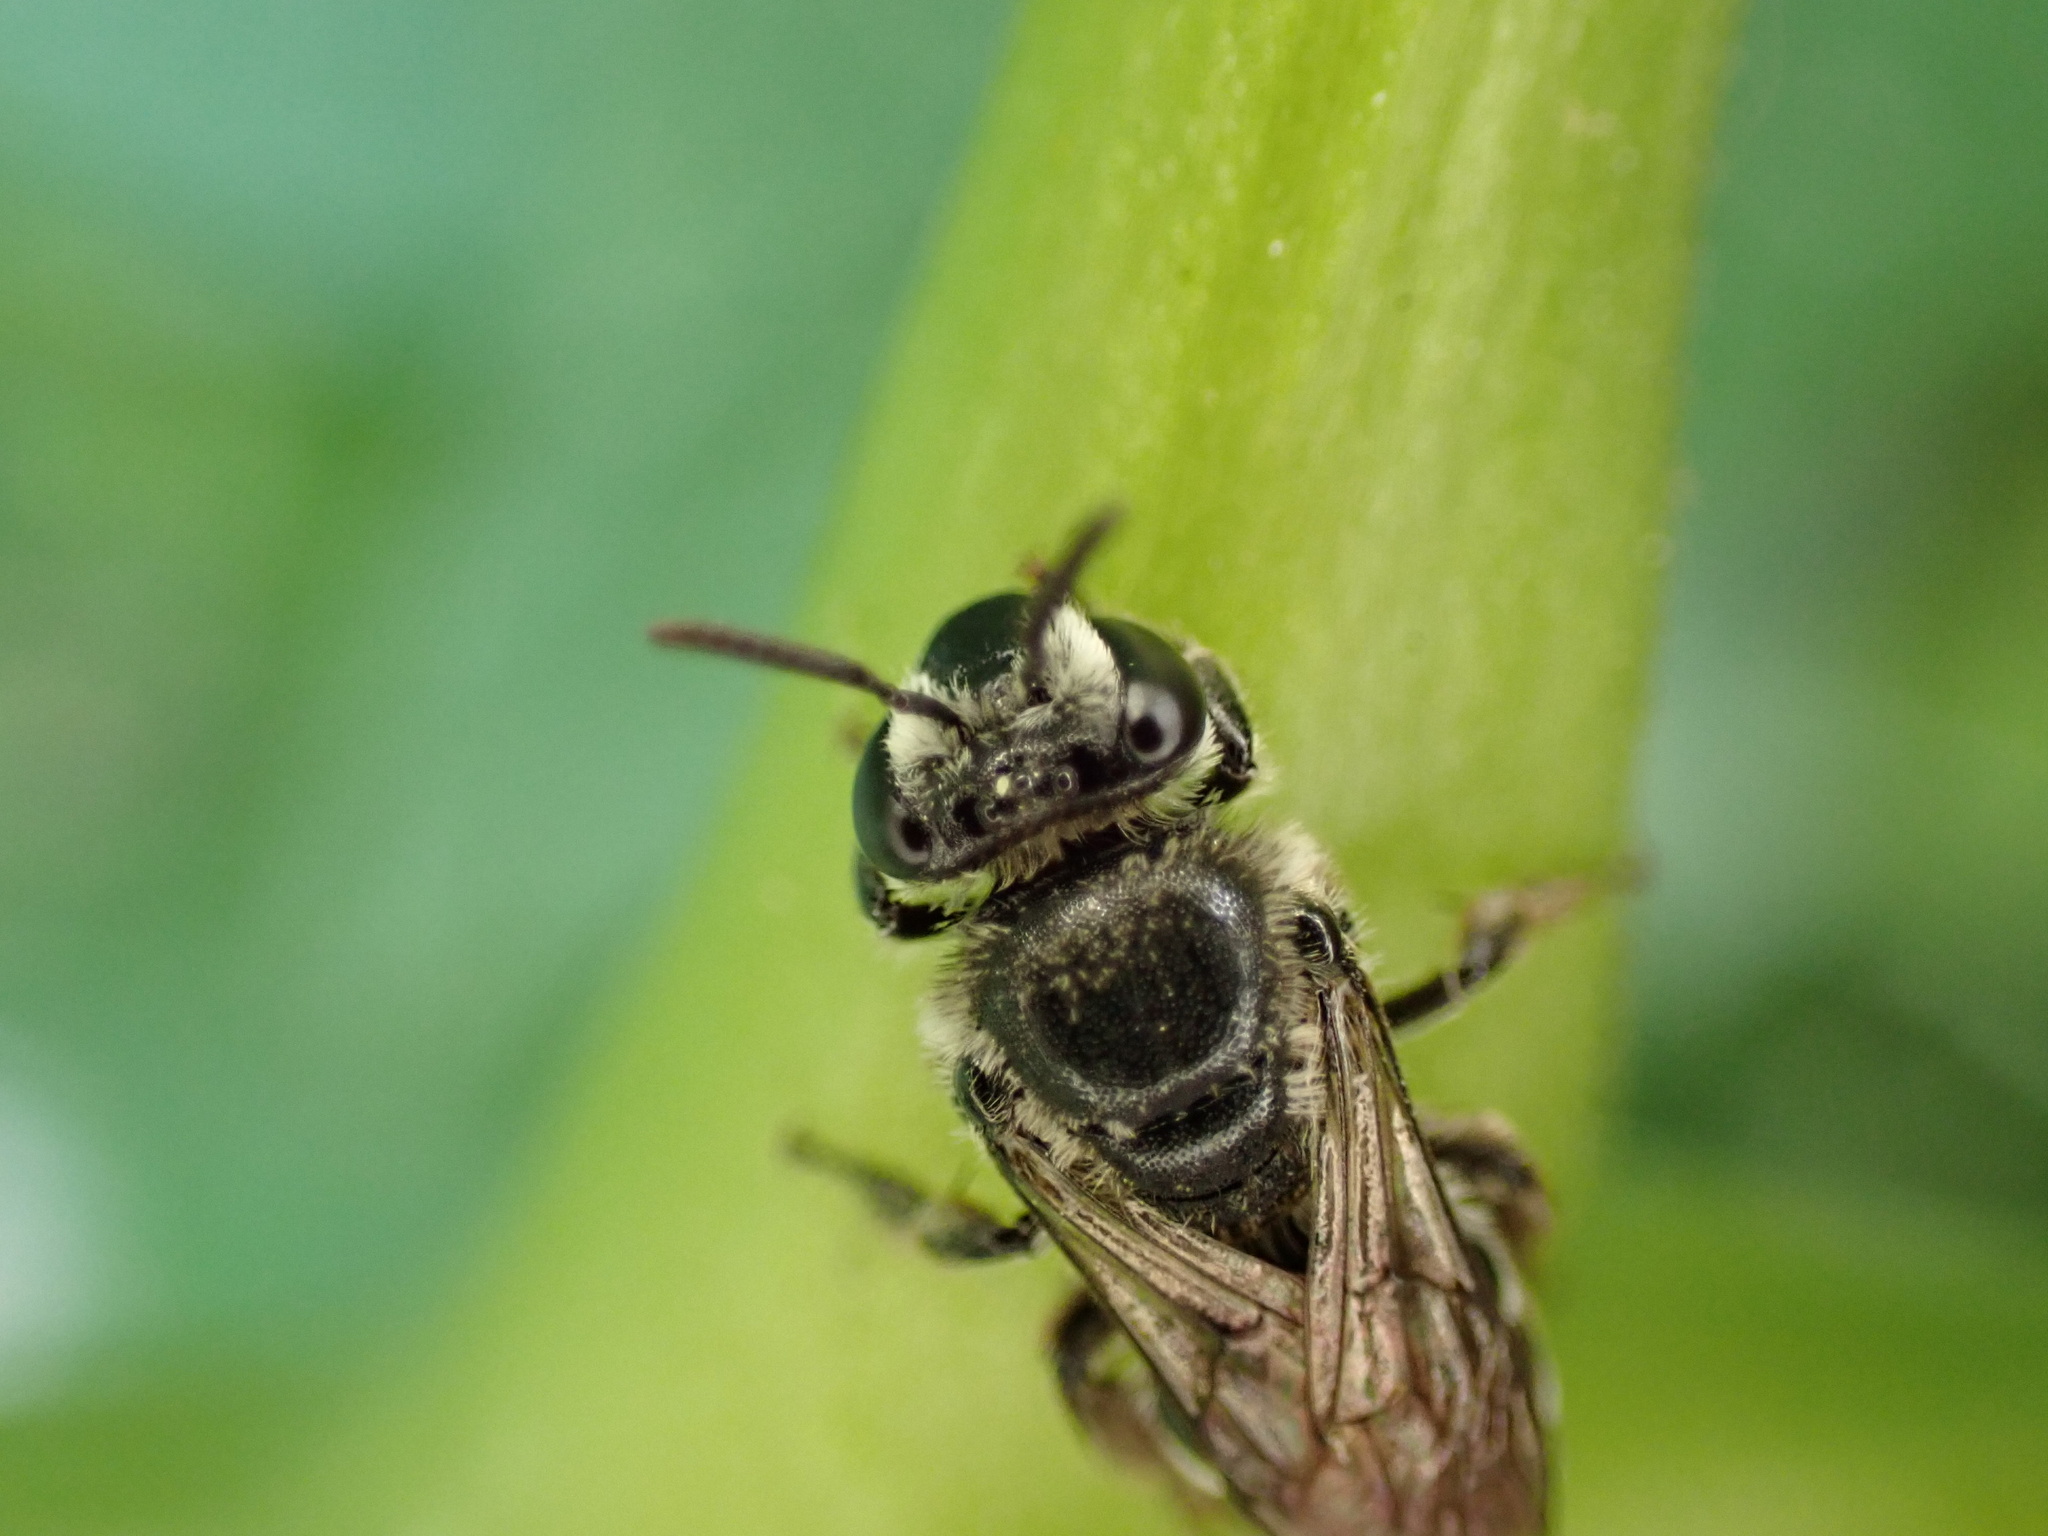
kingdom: Animalia
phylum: Arthropoda
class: Insecta
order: Hymenoptera
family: Colletidae
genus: Colletes
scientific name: Colletes latitarsis
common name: Broad-footed cellophane bee
